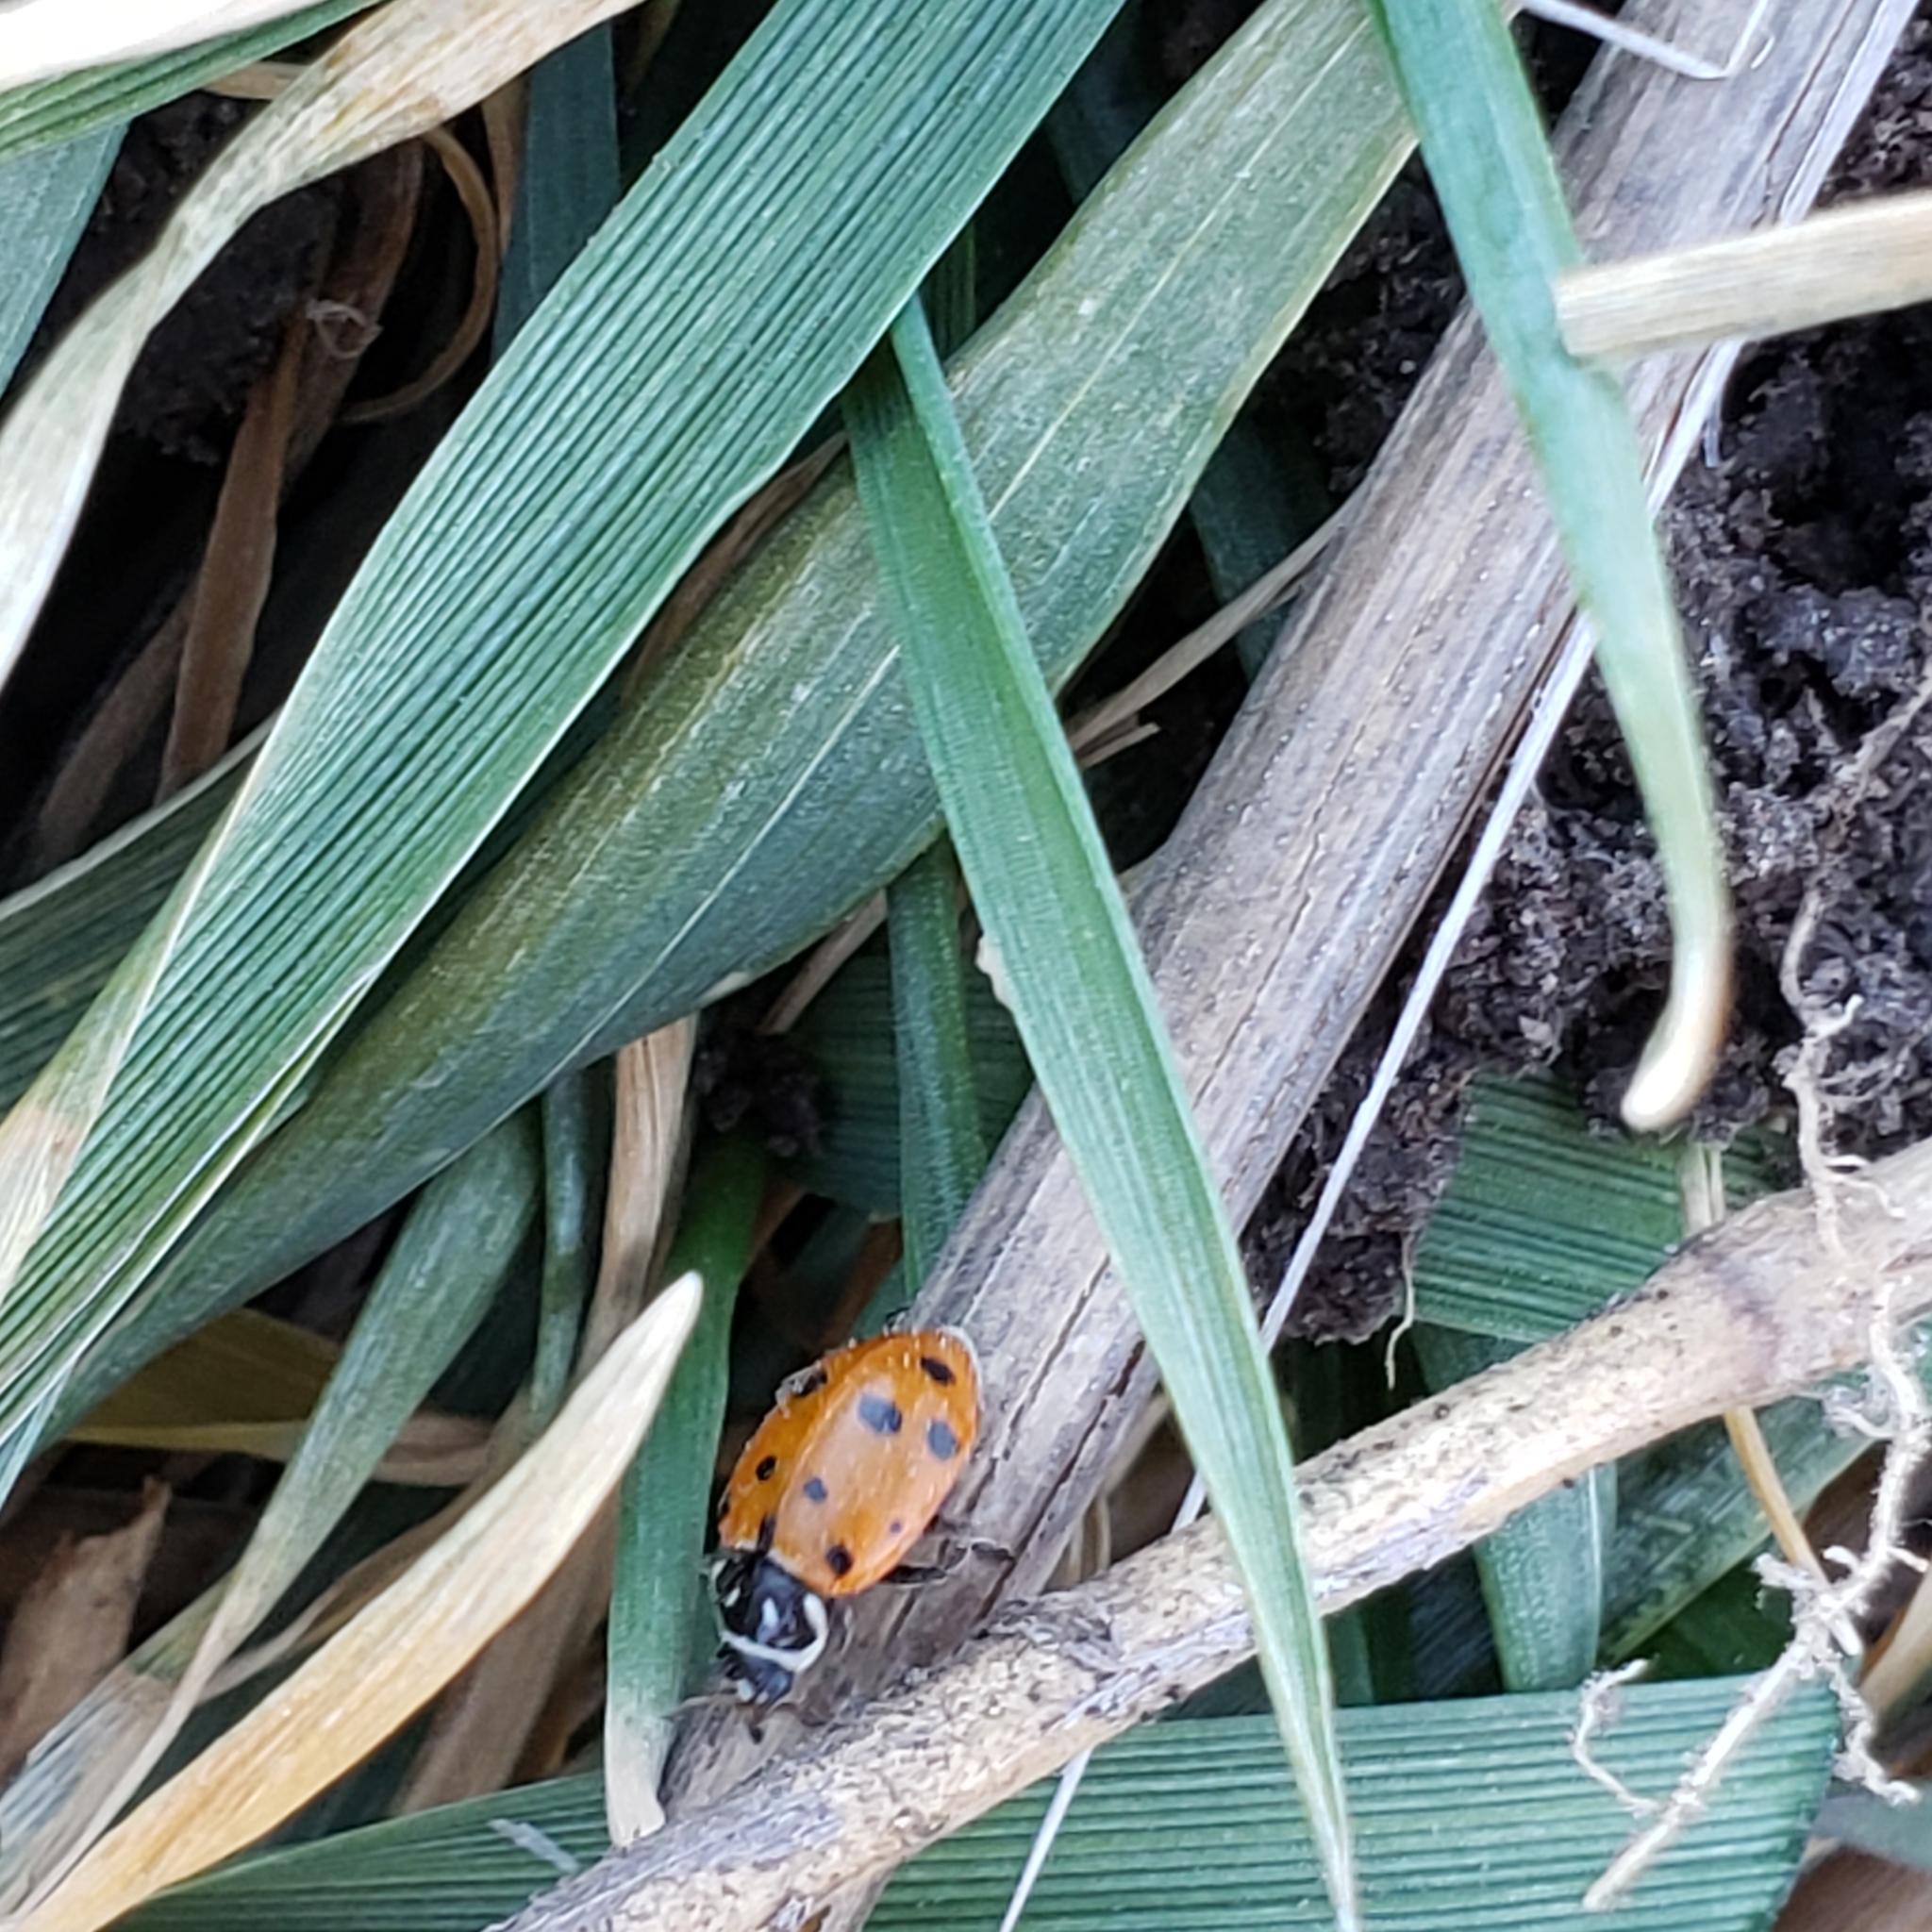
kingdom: Animalia
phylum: Arthropoda
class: Insecta
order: Coleoptera
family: Coccinellidae
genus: Hippodamia
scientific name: Hippodamia convergens
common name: Convergent lady beetle
